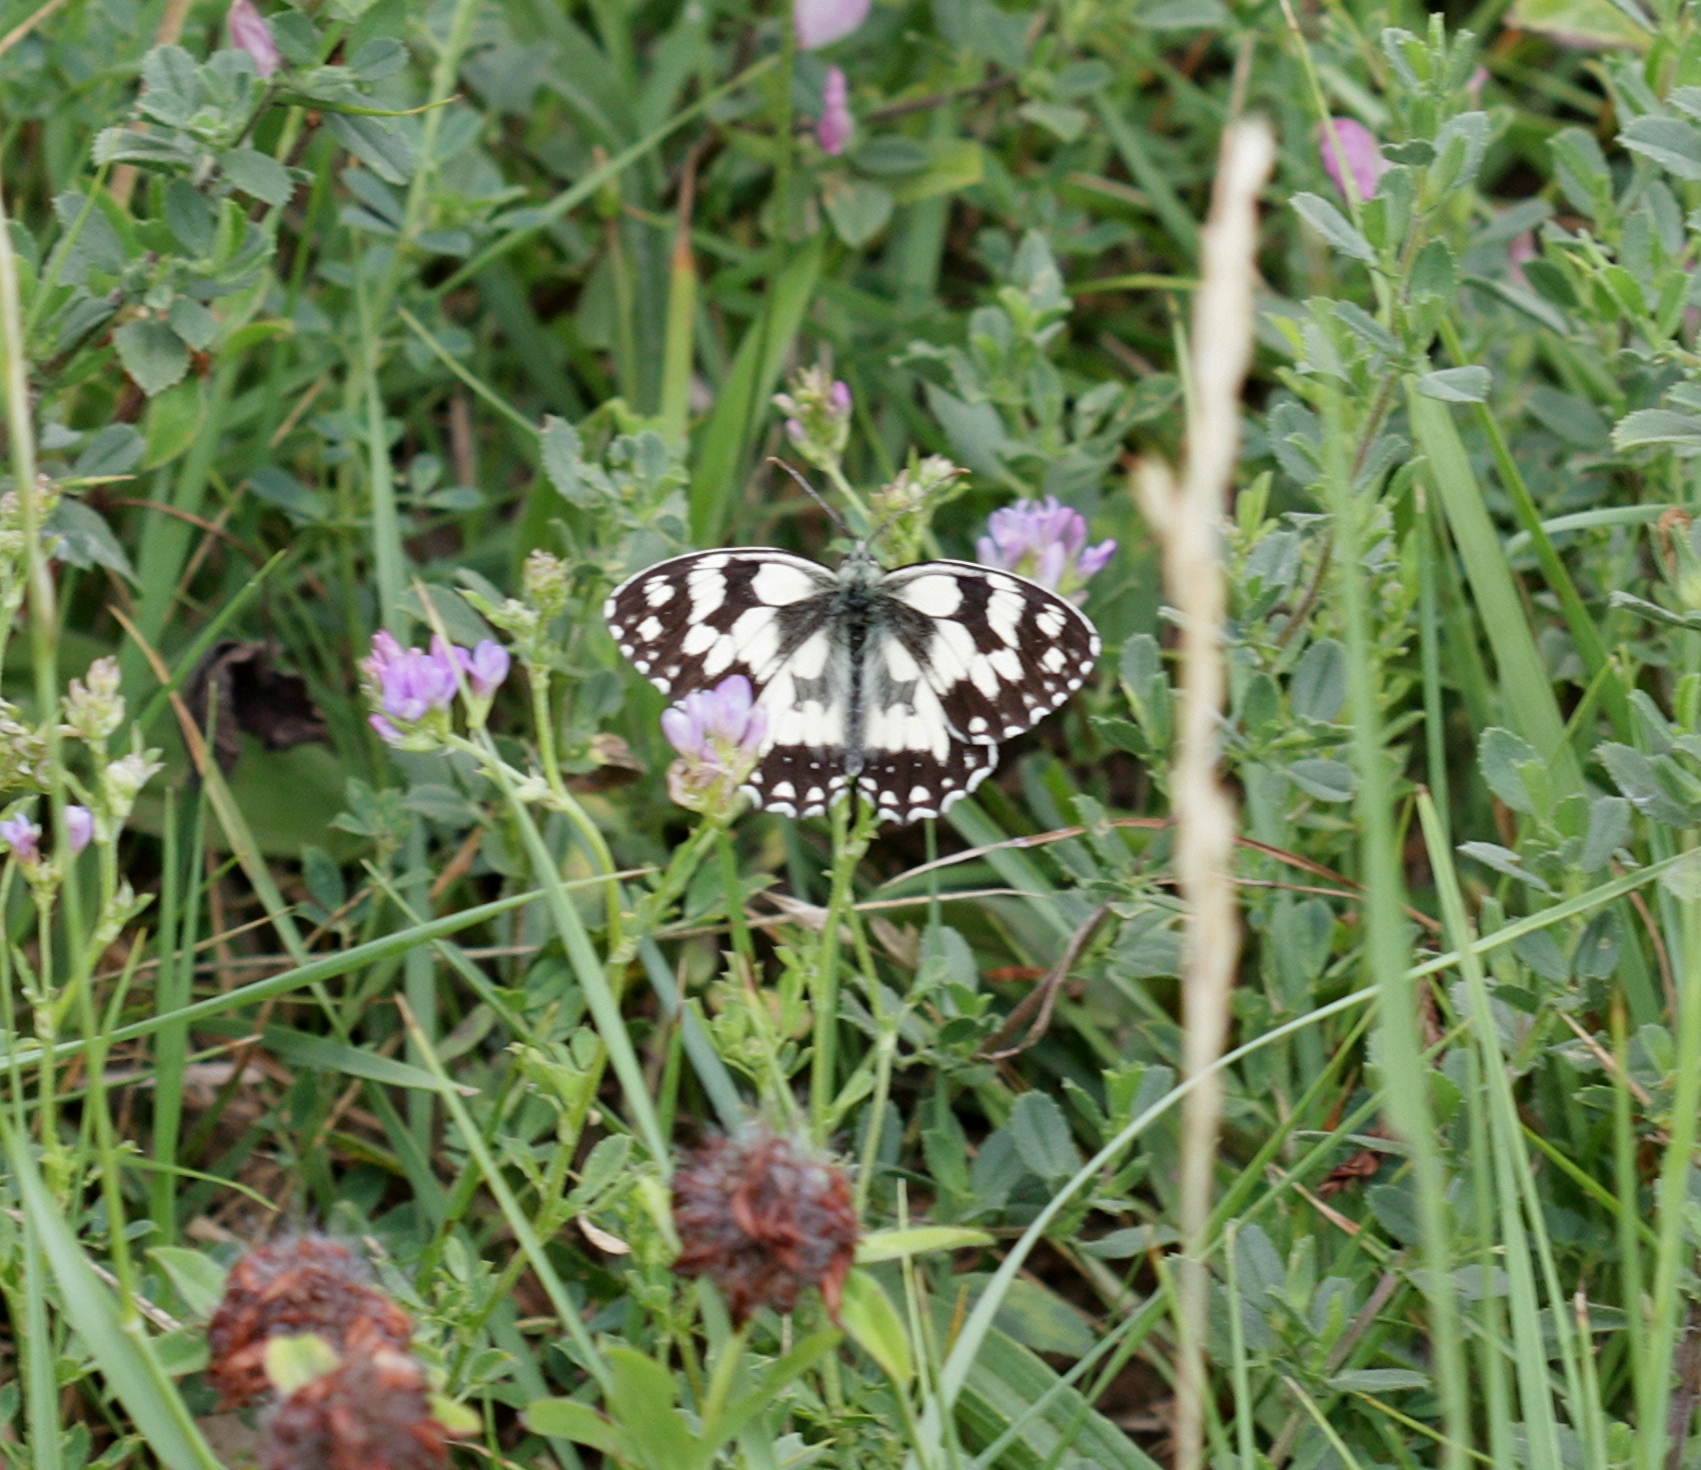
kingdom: Animalia
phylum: Arthropoda
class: Insecta
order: Lepidoptera
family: Nymphalidae
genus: Melanargia
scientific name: Melanargia galathea
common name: Marbled white
